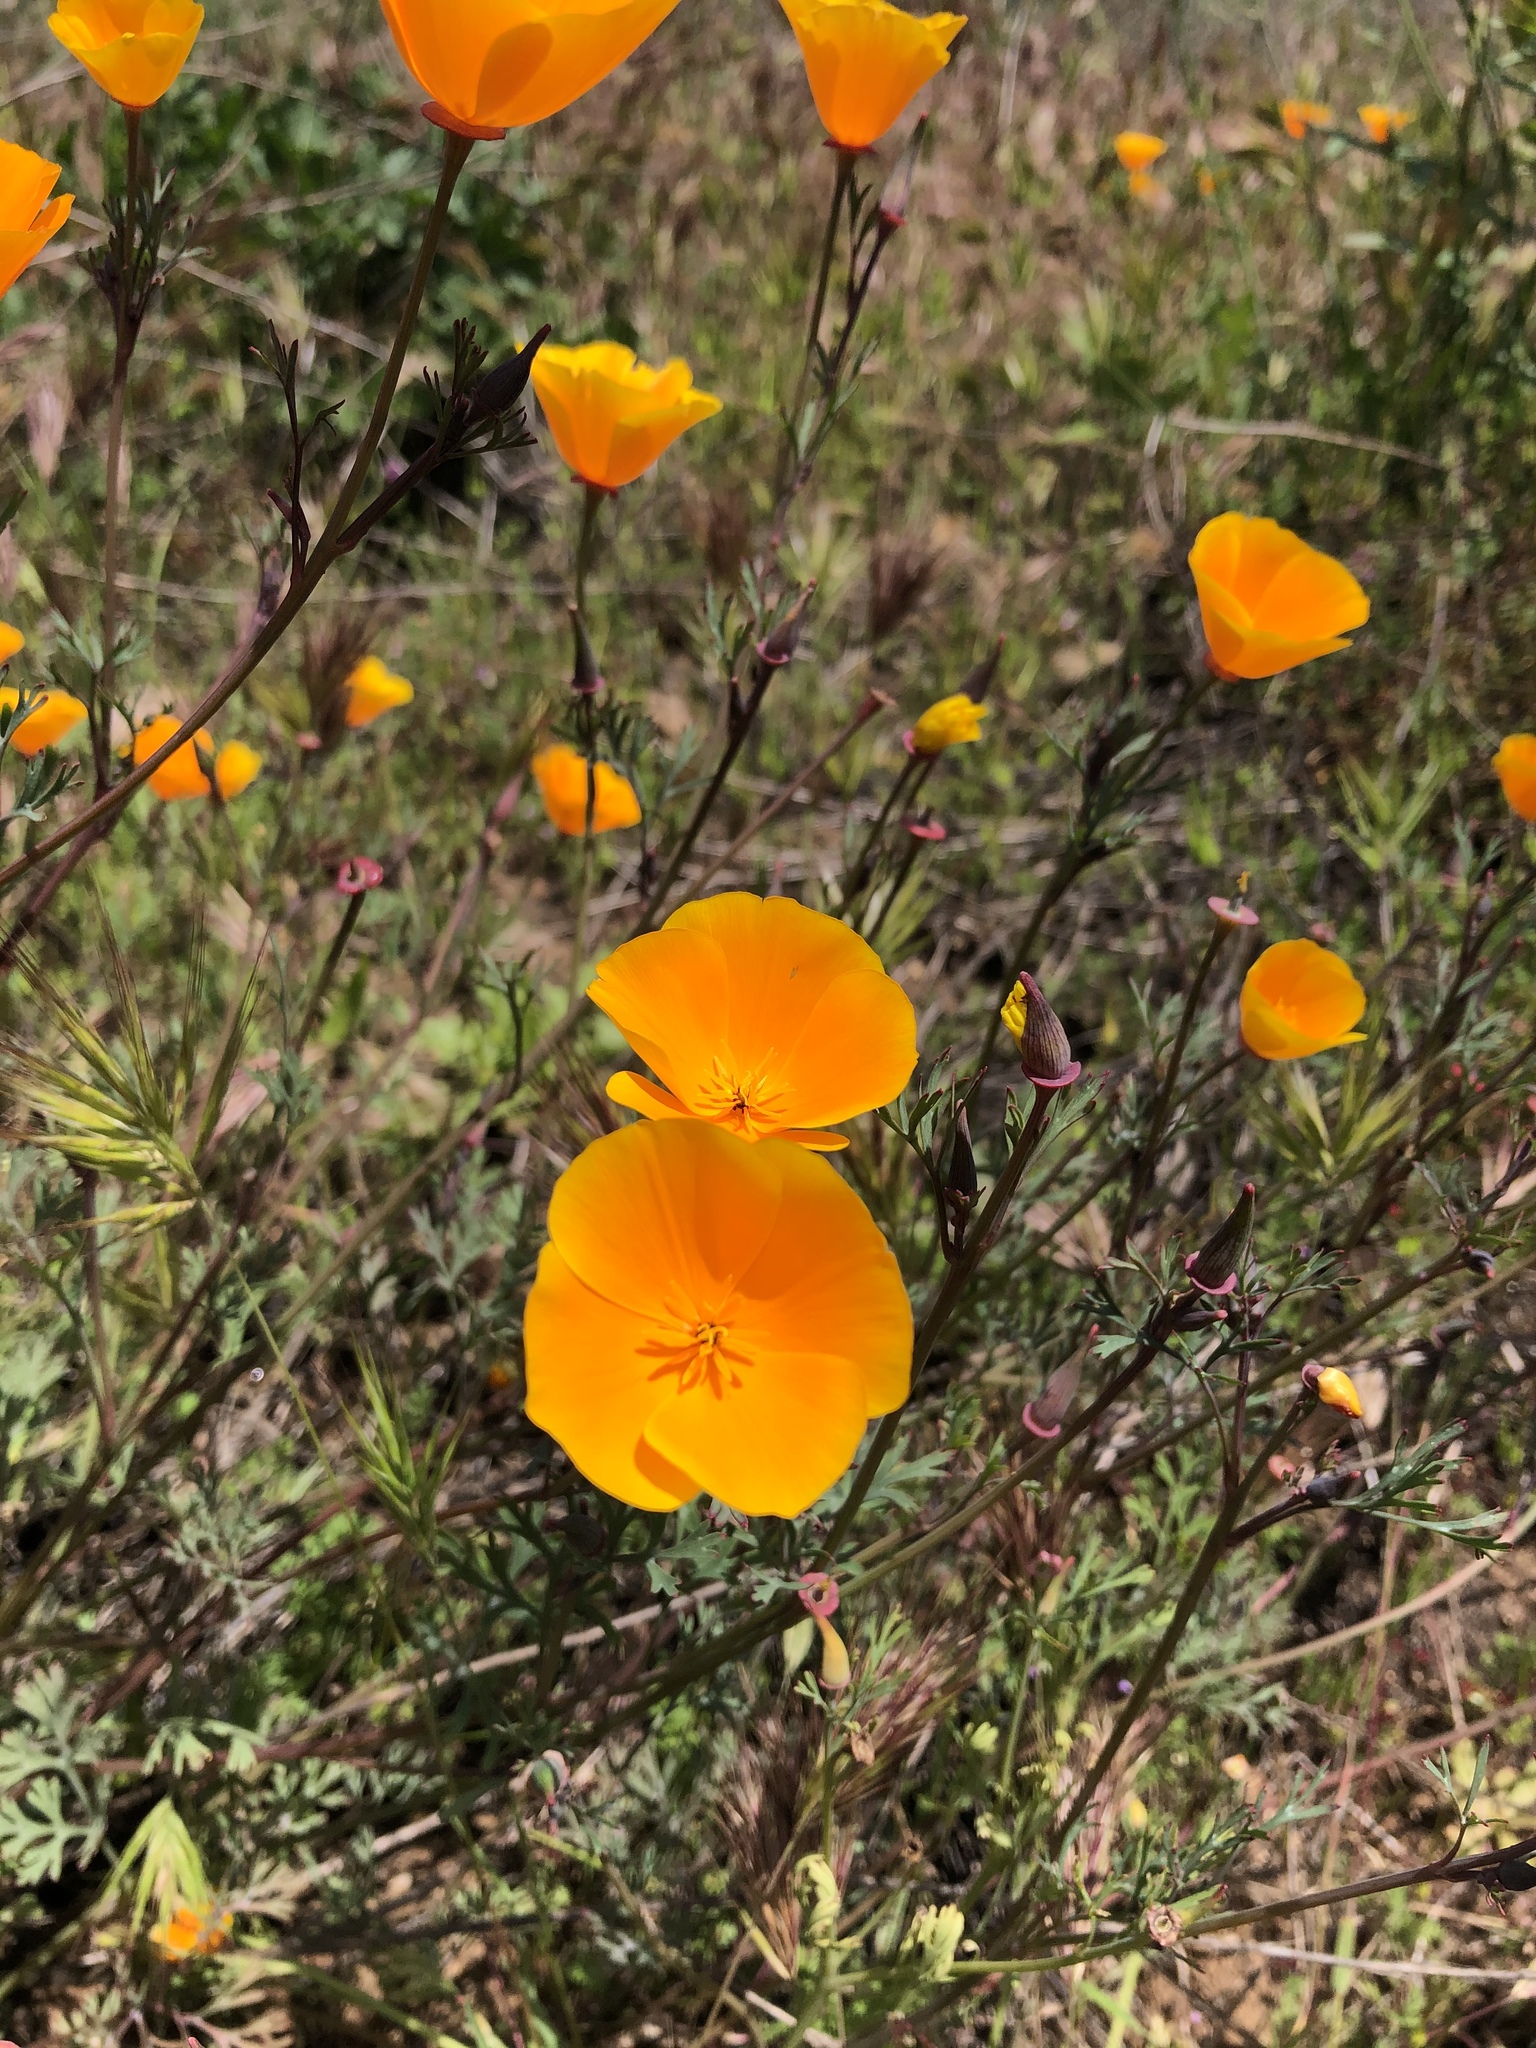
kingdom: Plantae
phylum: Tracheophyta
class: Magnoliopsida
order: Ranunculales
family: Papaveraceae
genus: Eschscholzia
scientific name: Eschscholzia californica
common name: California poppy
